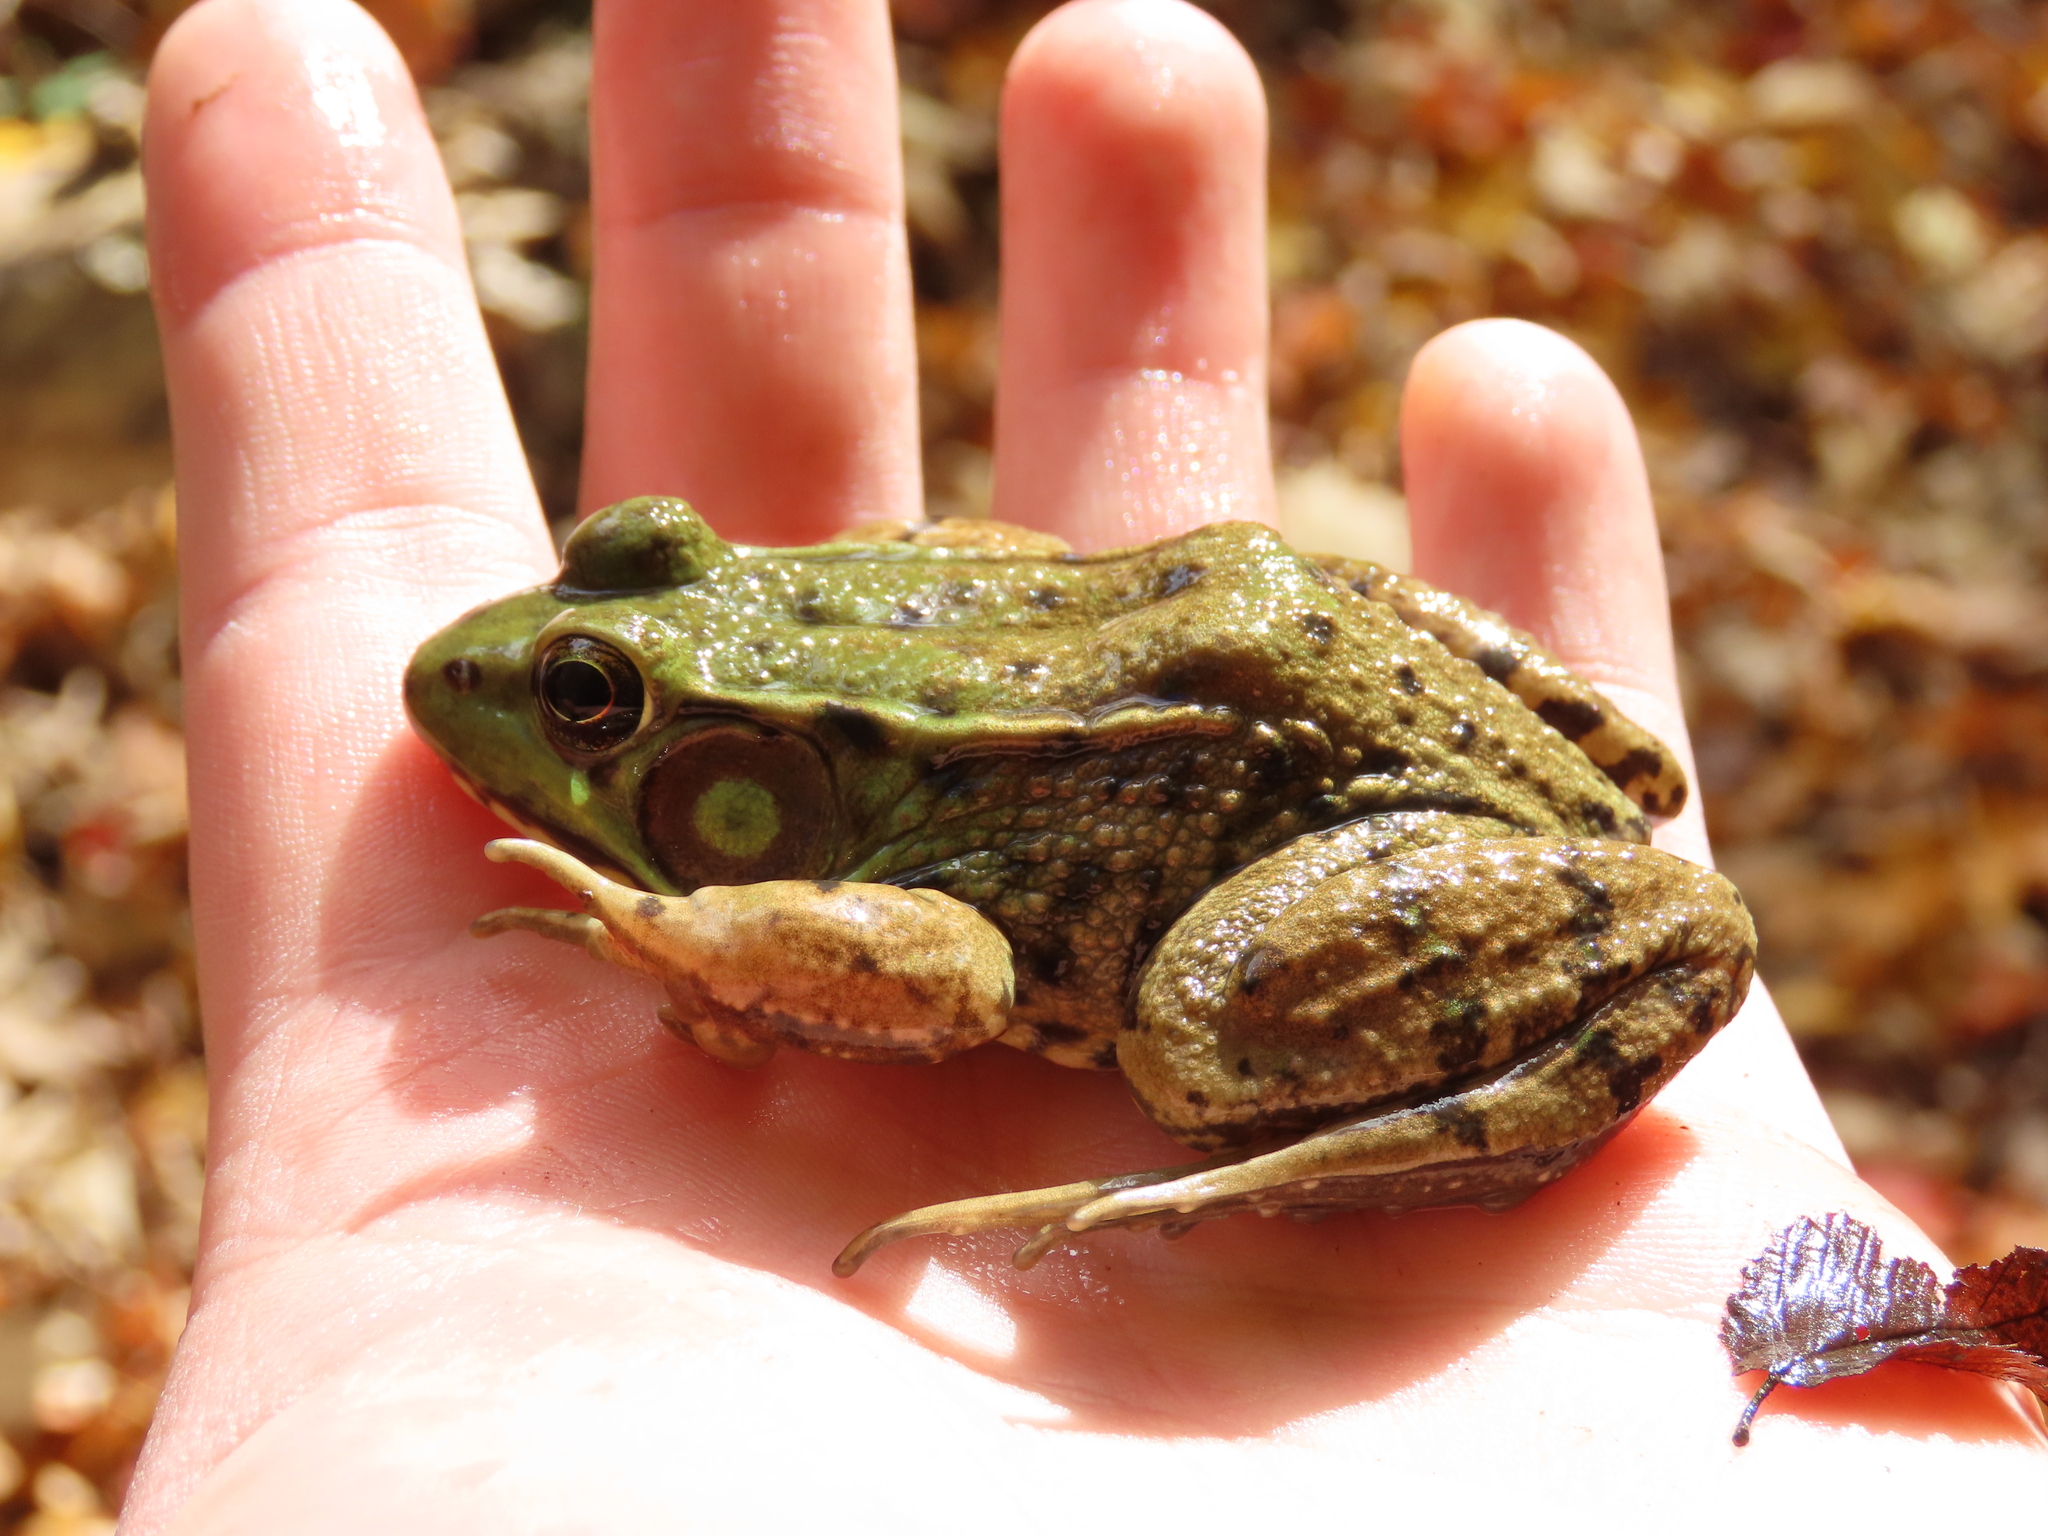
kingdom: Animalia
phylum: Chordata
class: Amphibia
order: Anura
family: Ranidae
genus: Lithobates
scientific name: Lithobates clamitans
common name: Green frog
